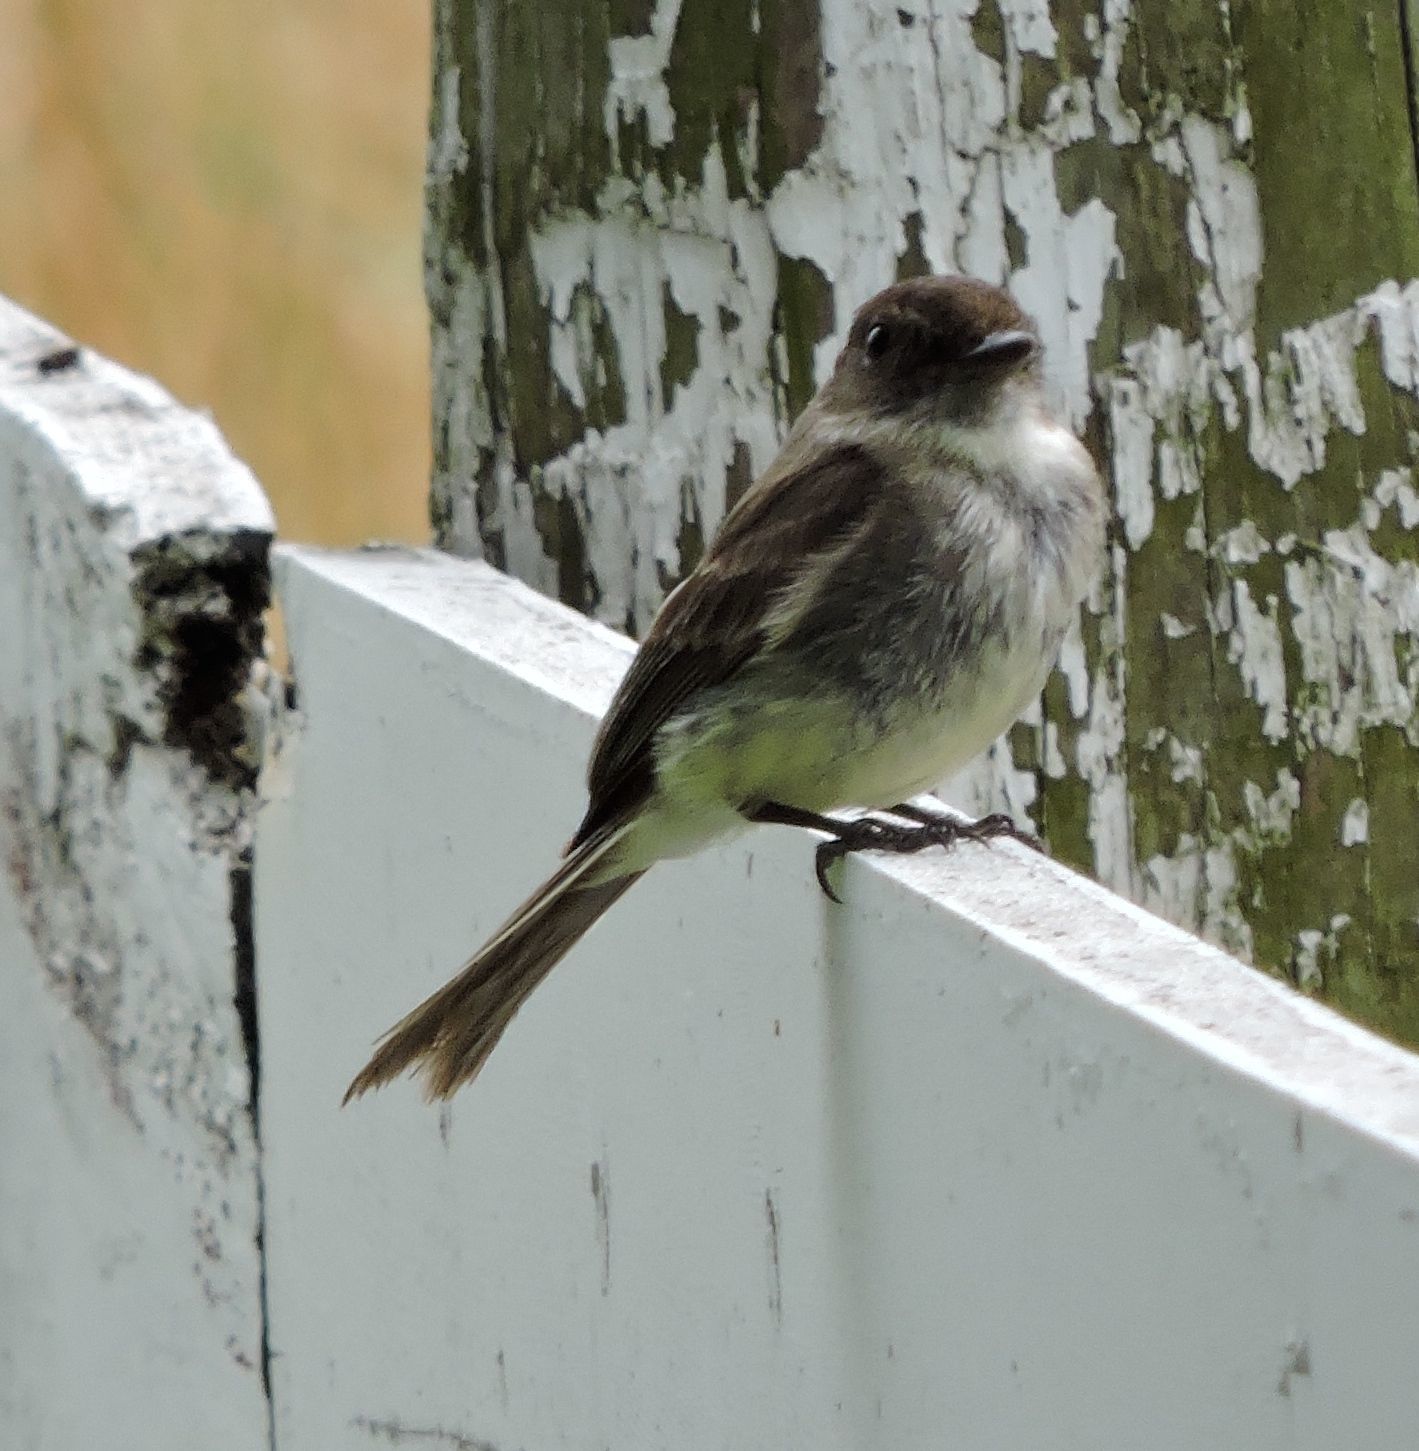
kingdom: Animalia
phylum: Chordata
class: Aves
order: Passeriformes
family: Tyrannidae
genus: Sayornis
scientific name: Sayornis phoebe
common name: Eastern phoebe
